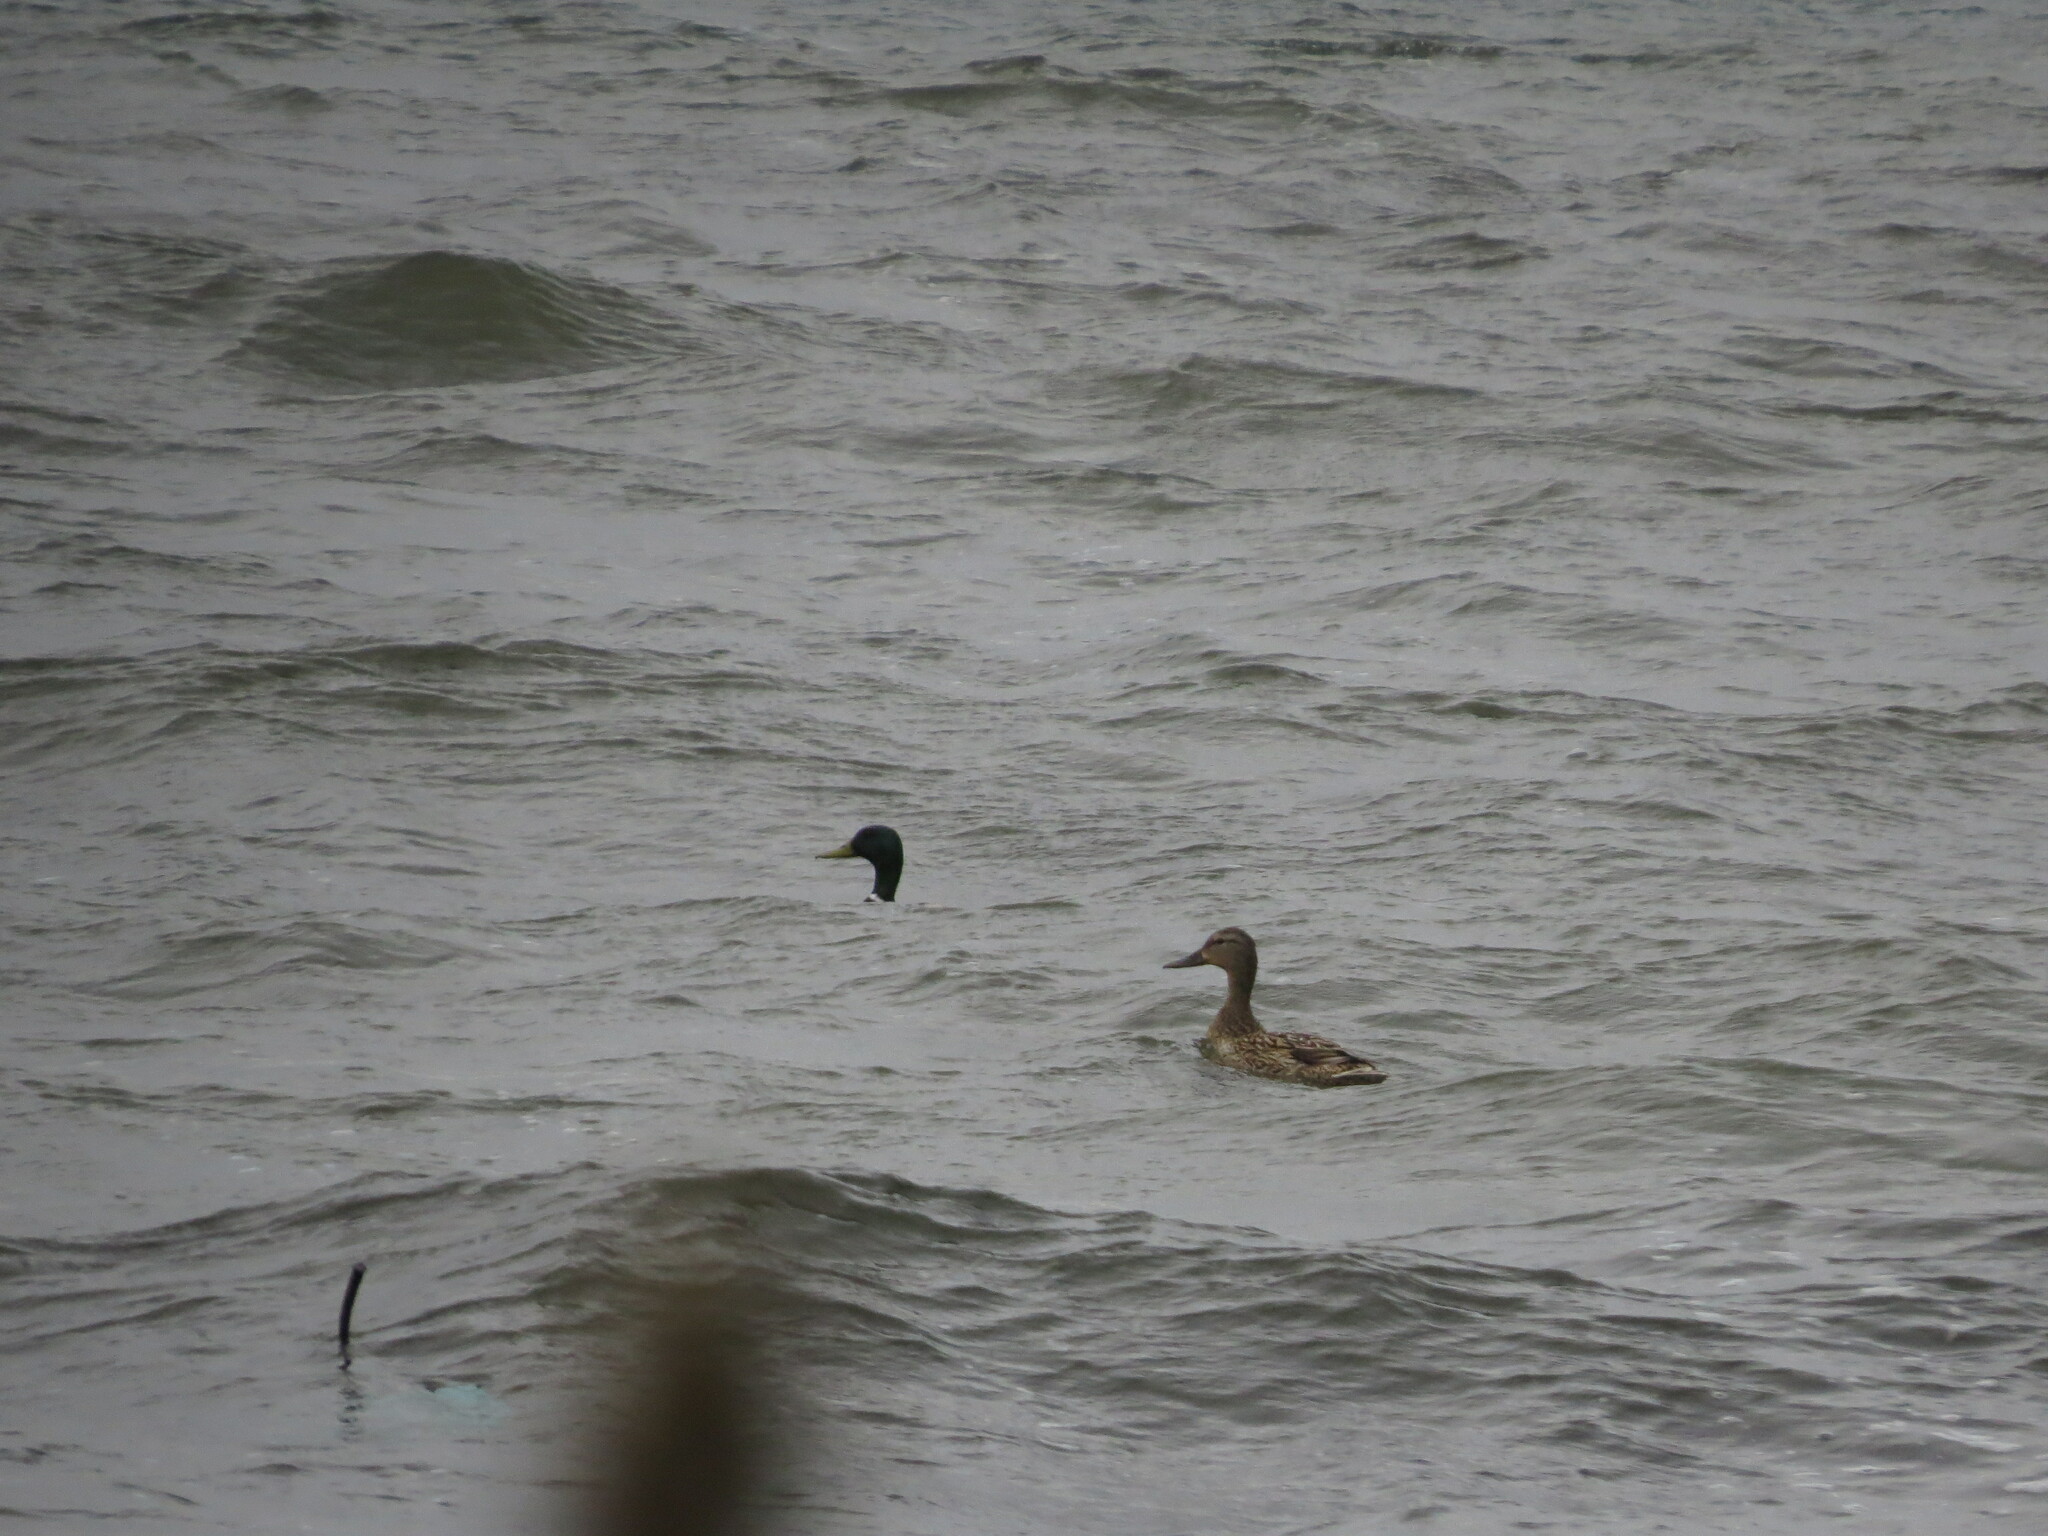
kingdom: Animalia
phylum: Chordata
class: Aves
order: Anseriformes
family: Anatidae
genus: Anas
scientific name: Anas platyrhynchos
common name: Mallard
